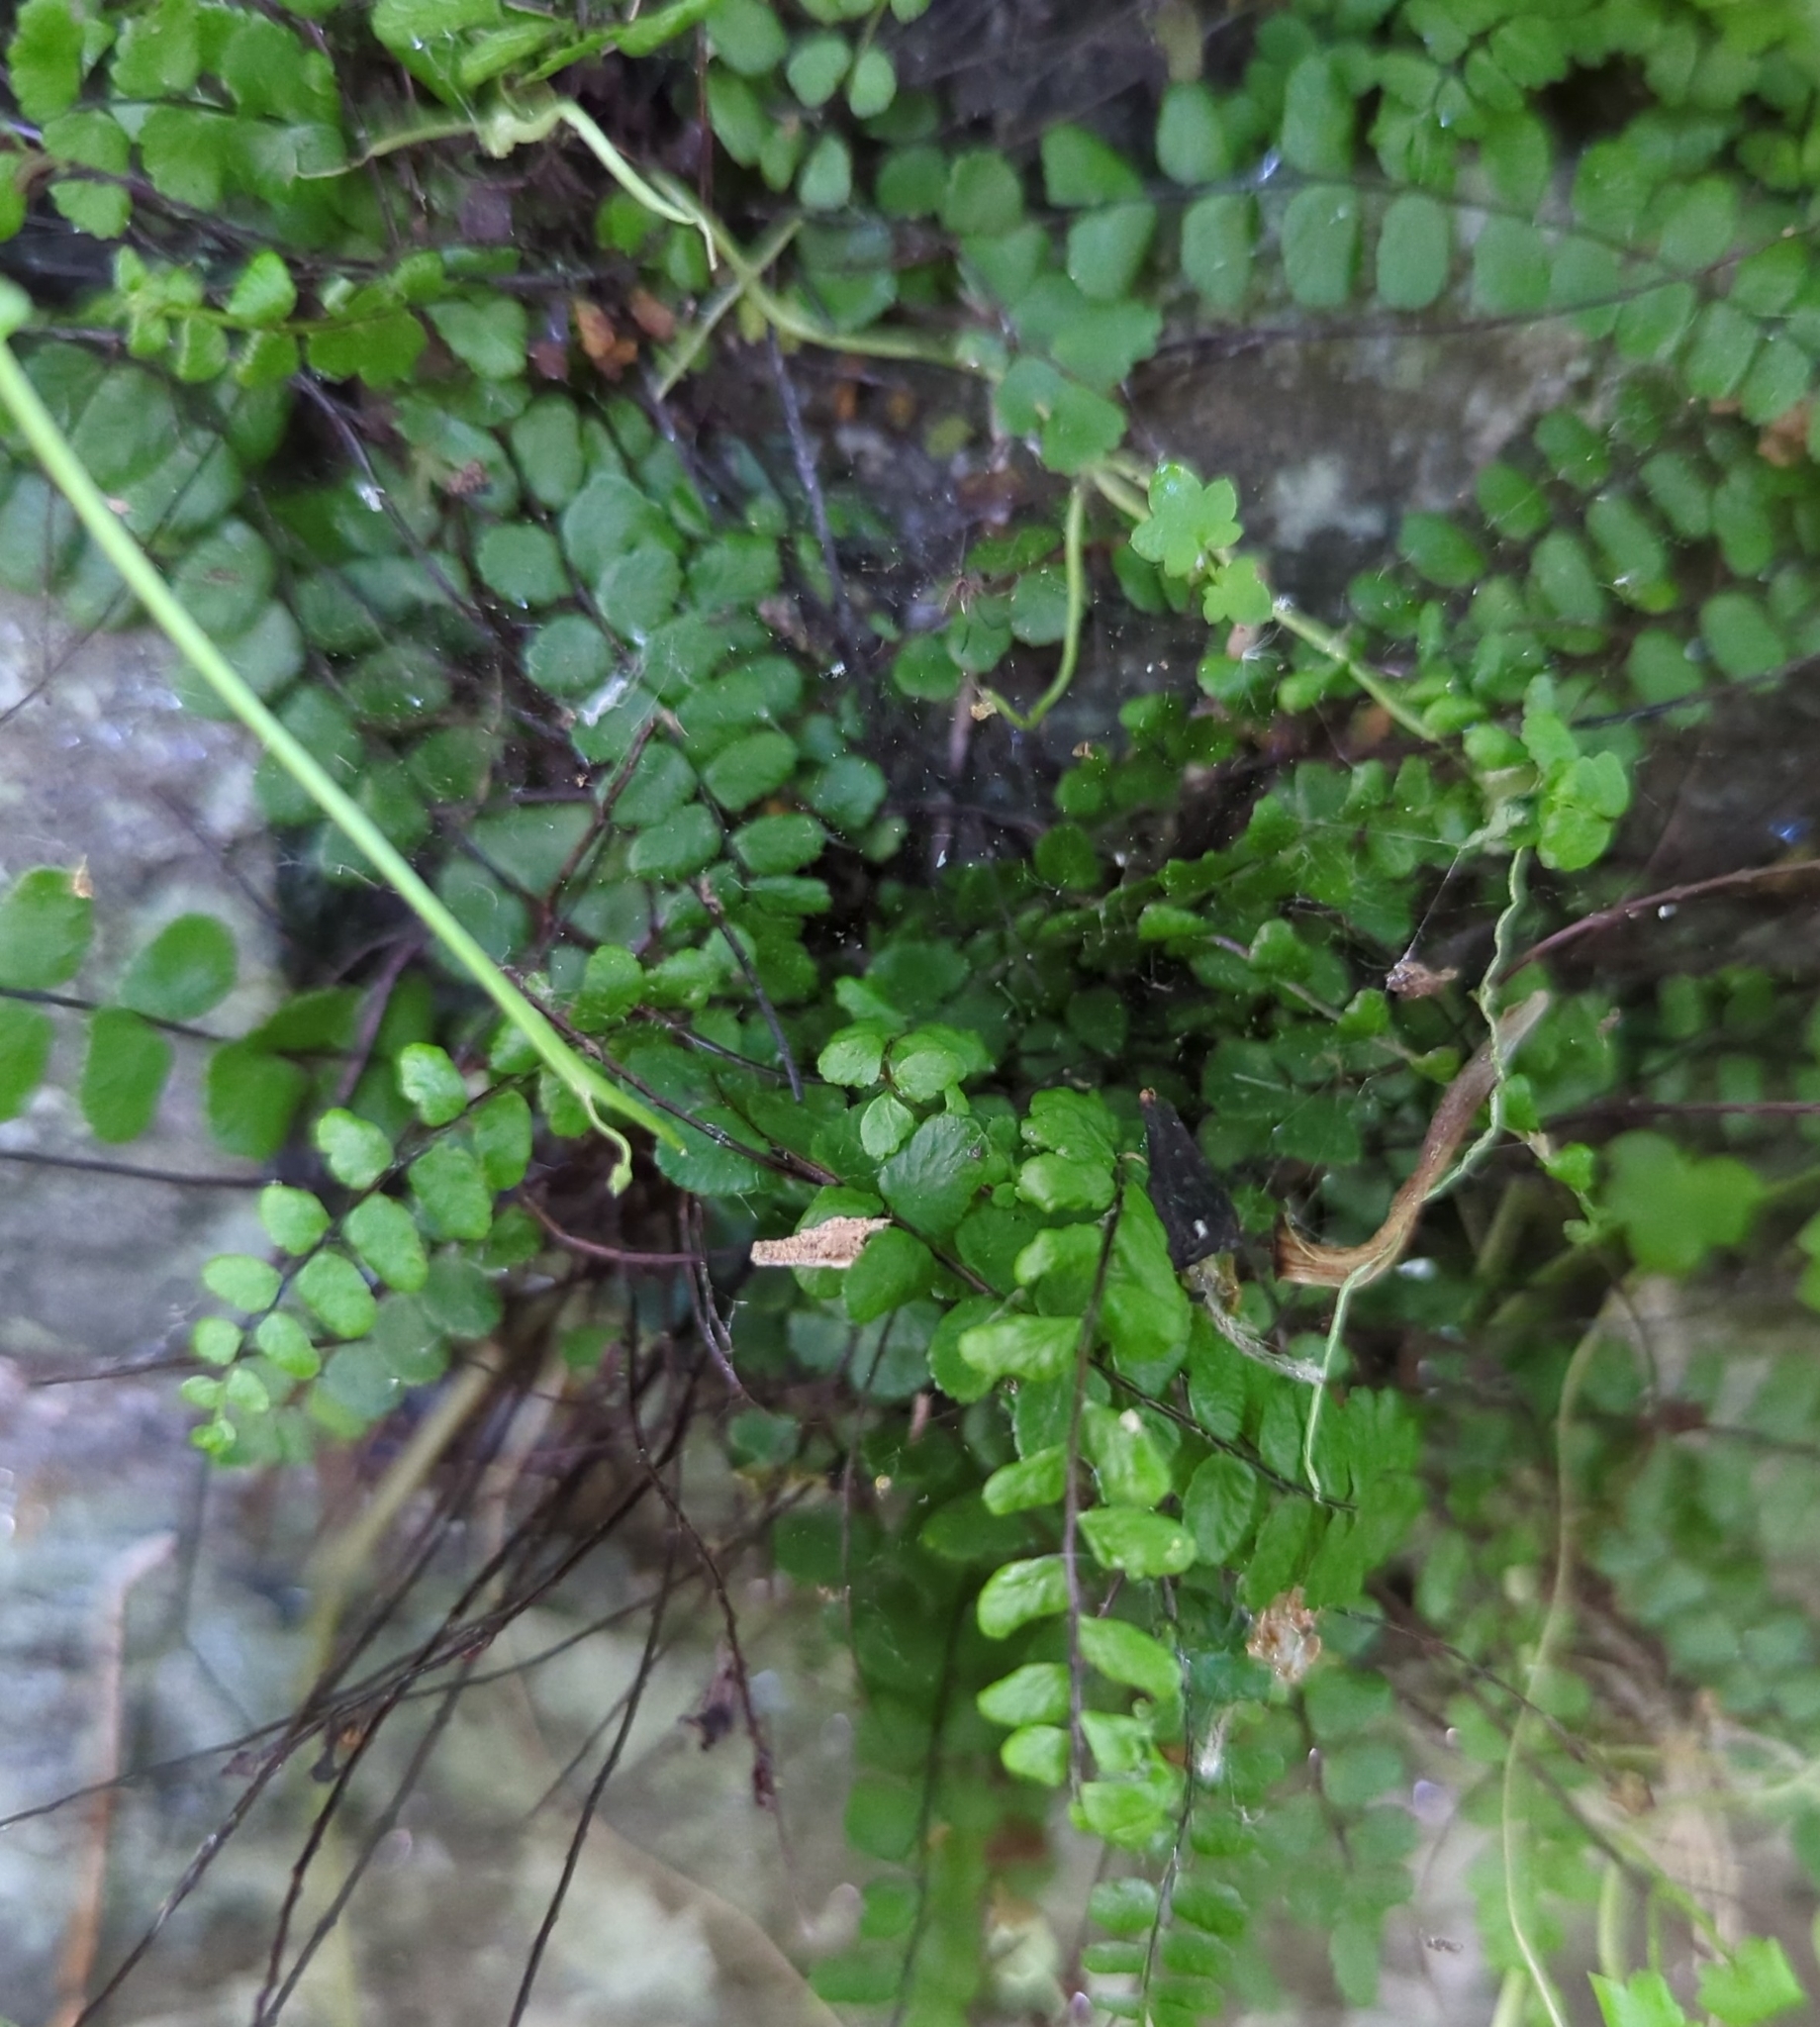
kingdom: Plantae
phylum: Tracheophyta
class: Polypodiopsida
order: Polypodiales
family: Aspleniaceae
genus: Asplenium
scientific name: Asplenium trichomanes
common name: Maidenhair spleenwort
